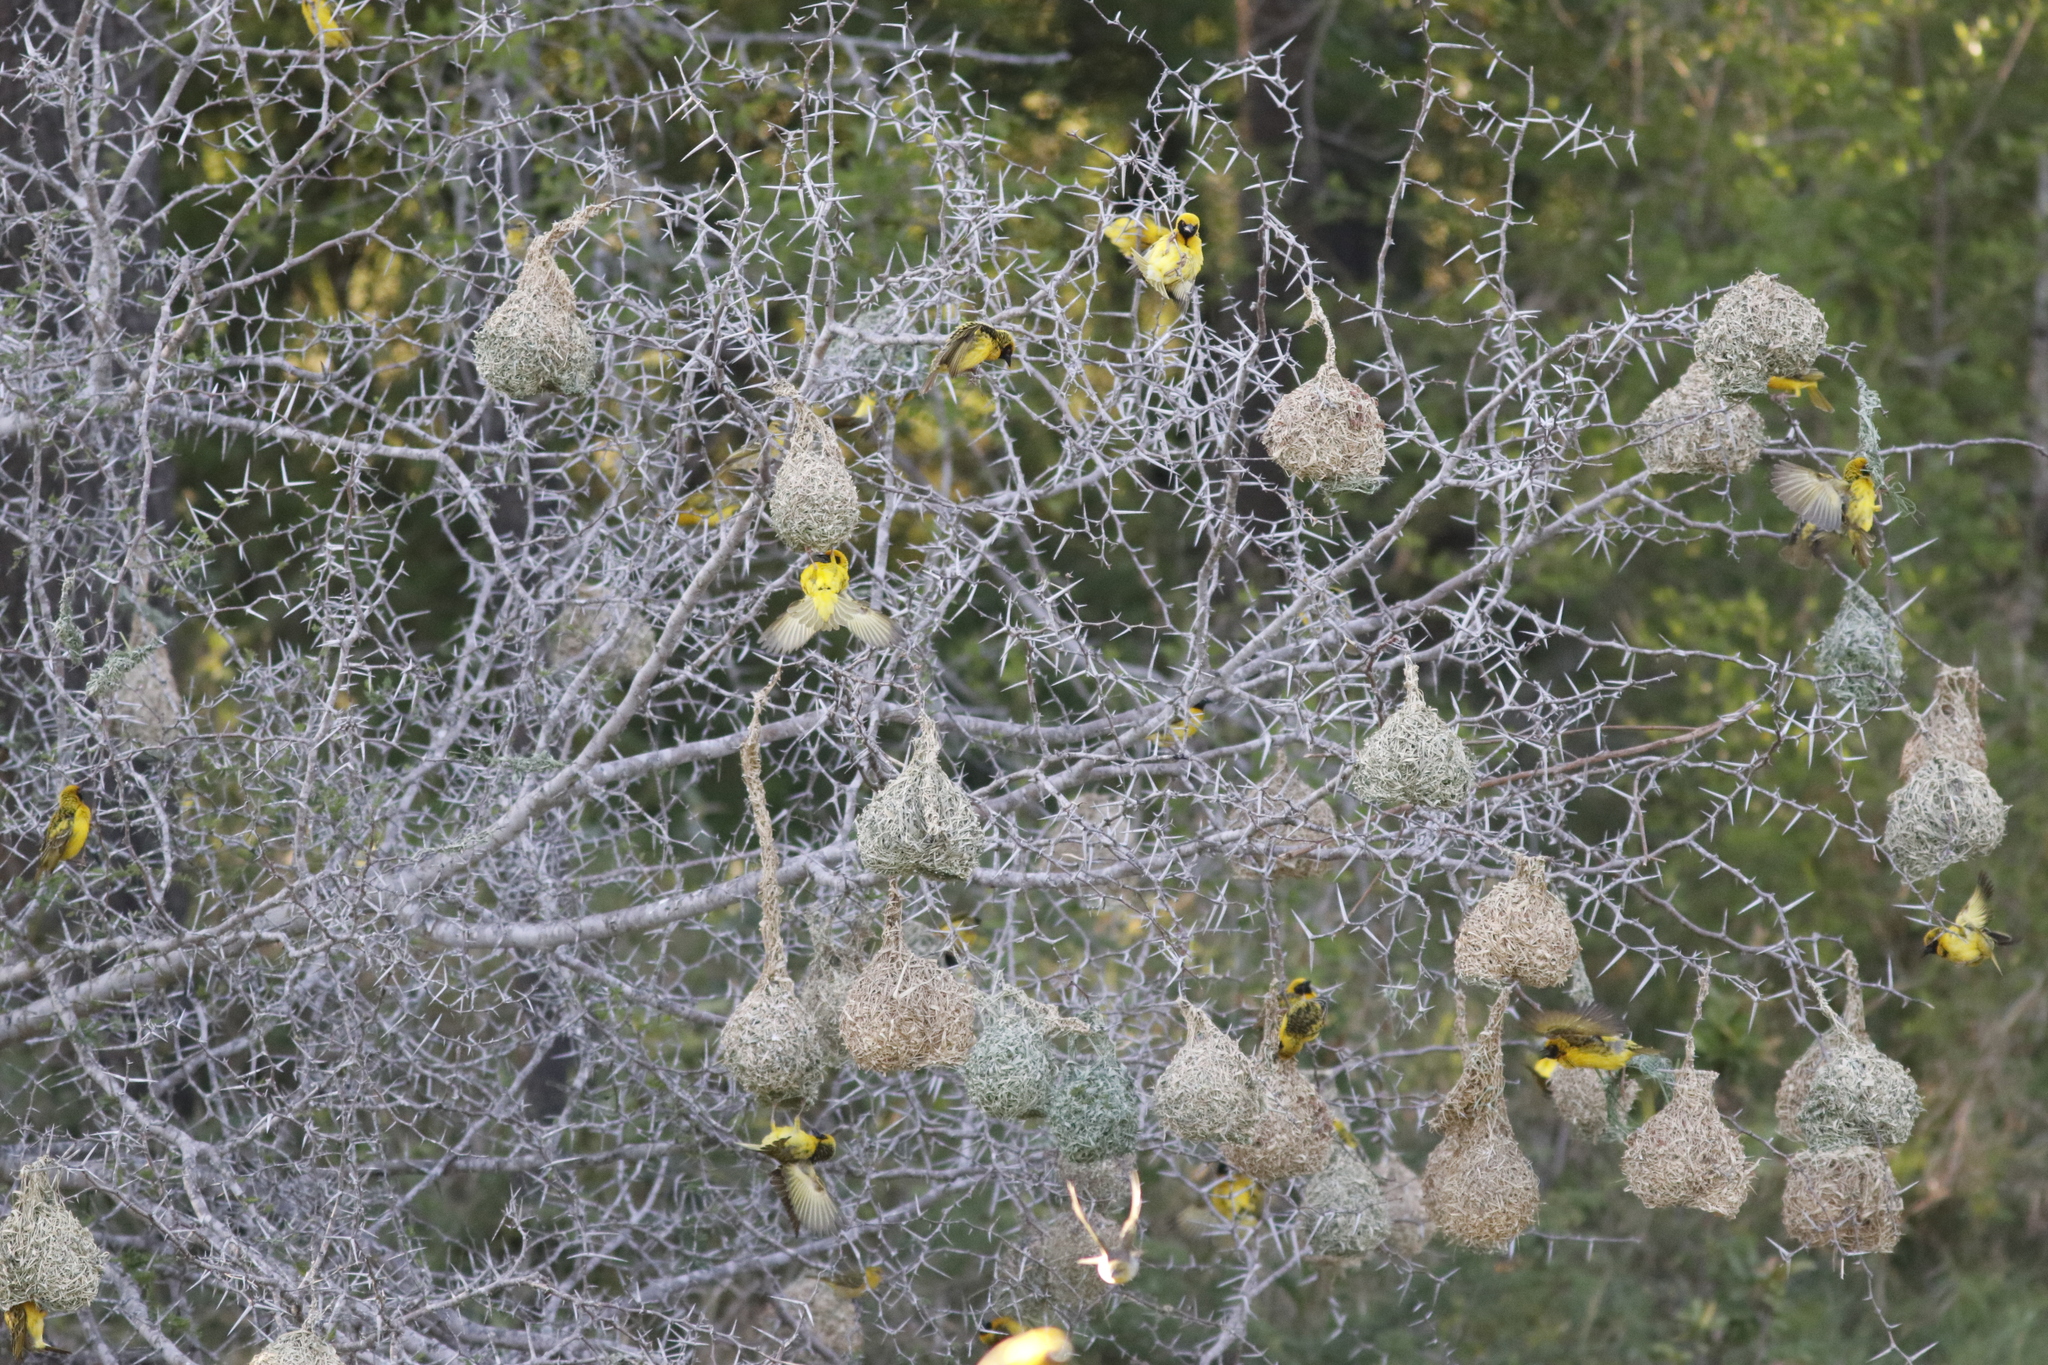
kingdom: Animalia
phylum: Chordata
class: Aves
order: Passeriformes
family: Ploceidae
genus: Ploceus
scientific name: Ploceus cucullatus
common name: Village weaver
